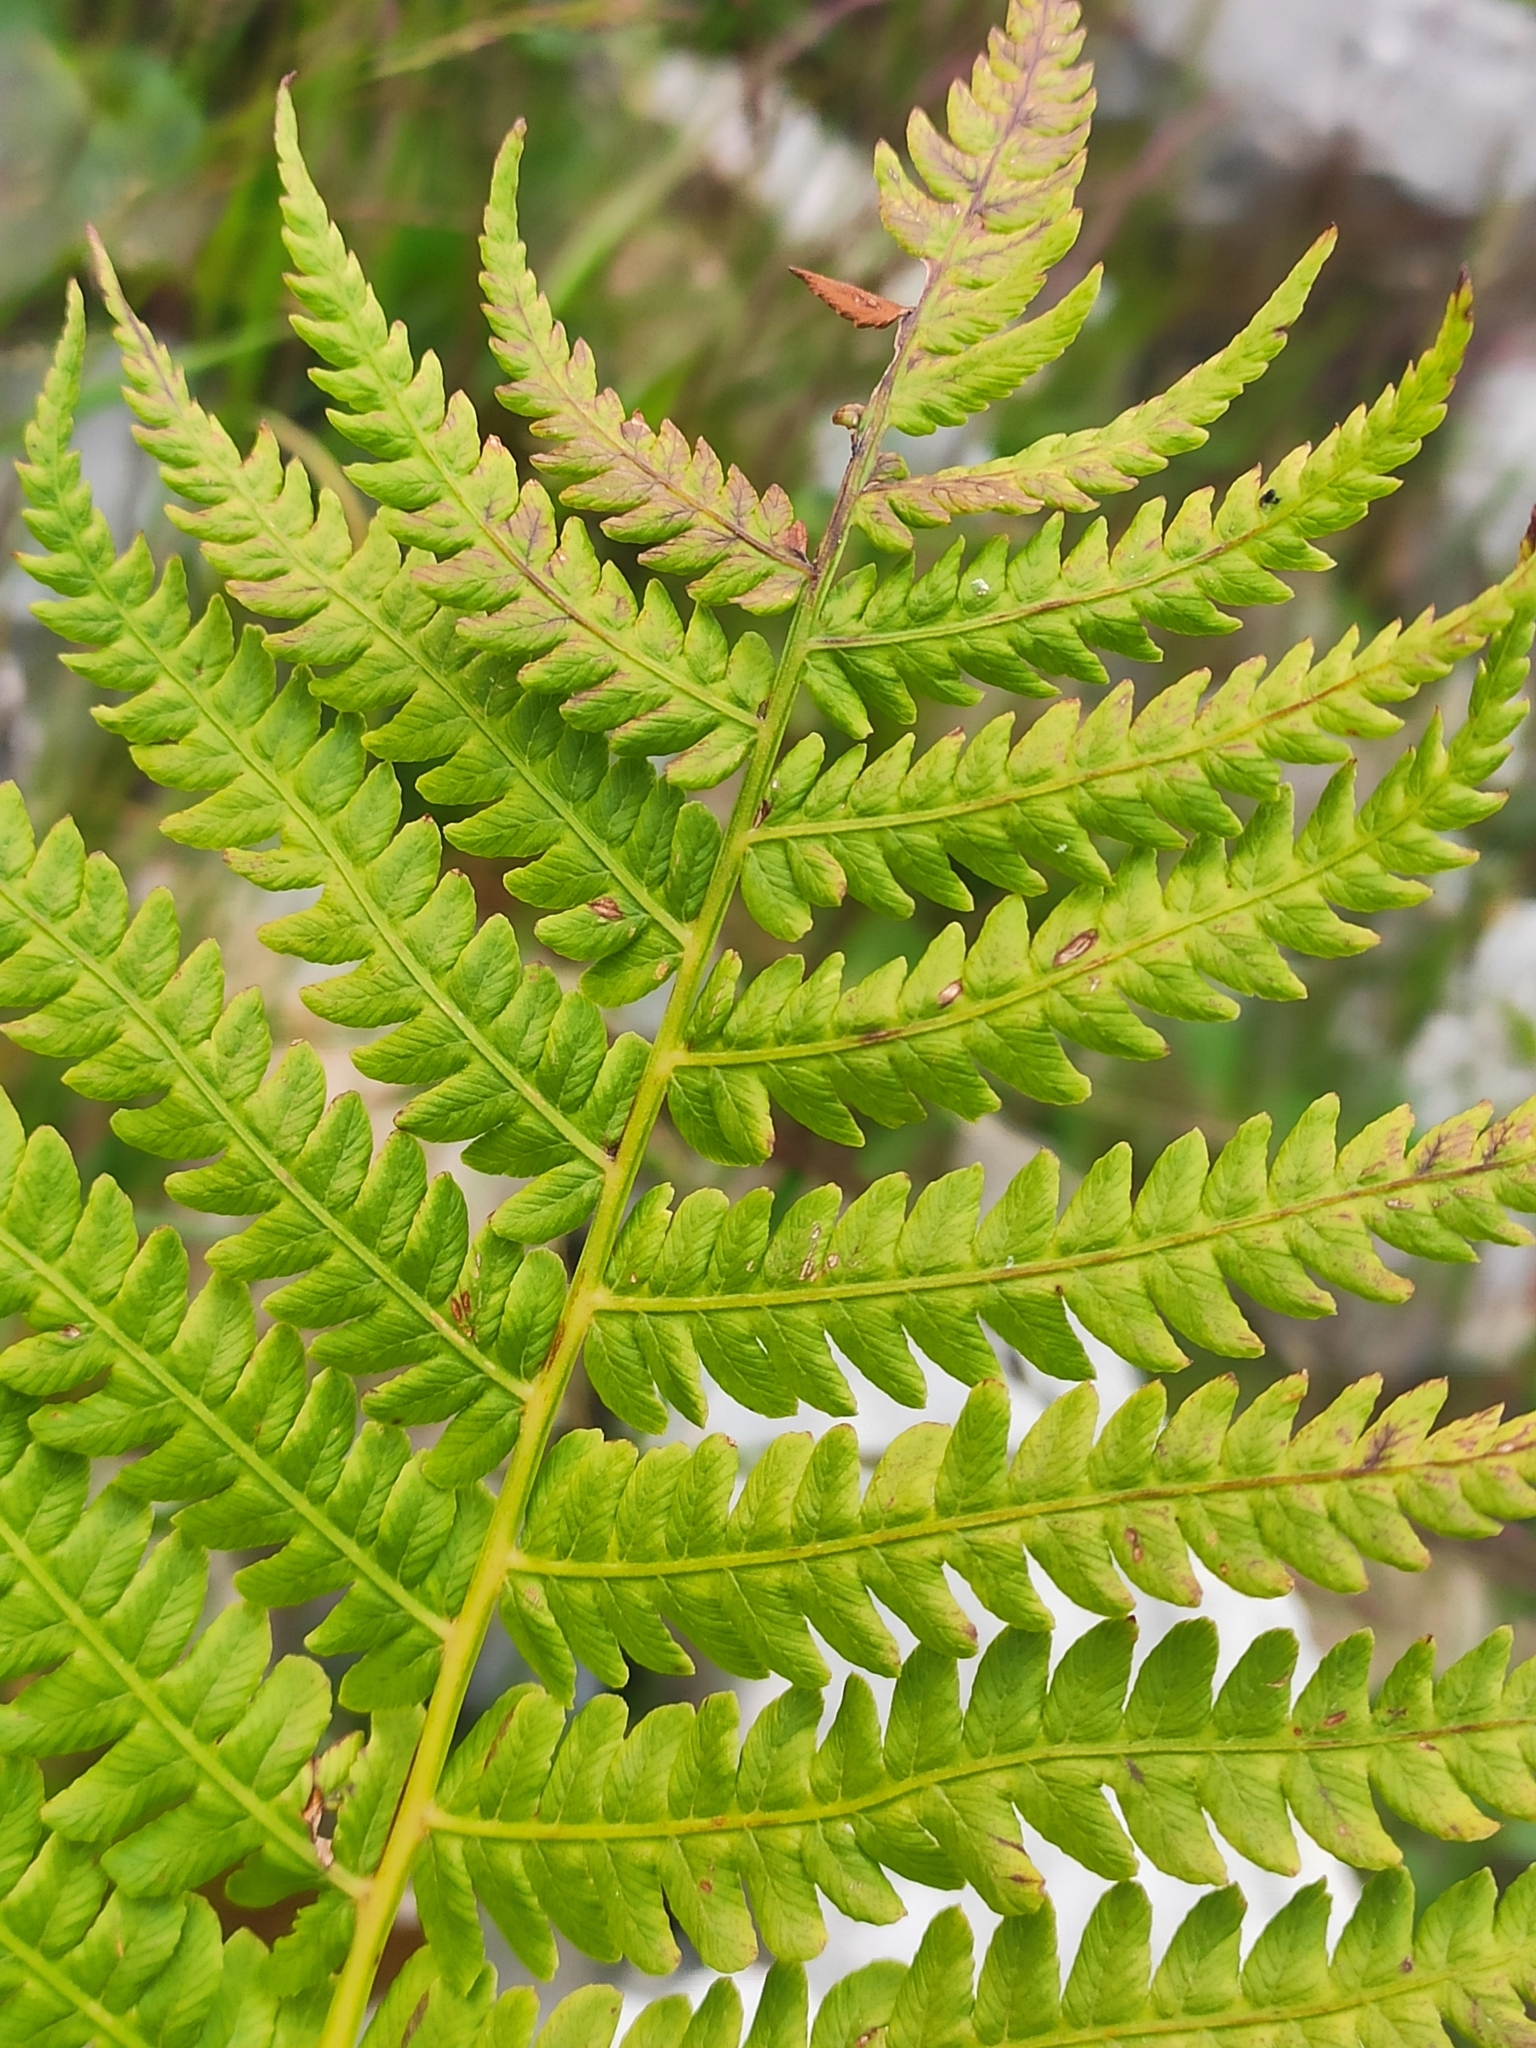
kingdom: Plantae
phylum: Tracheophyta
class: Polypodiopsida
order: Polypodiales
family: Onocleaceae
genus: Matteuccia
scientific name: Matteuccia struthiopteris
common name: Ostrich fern
